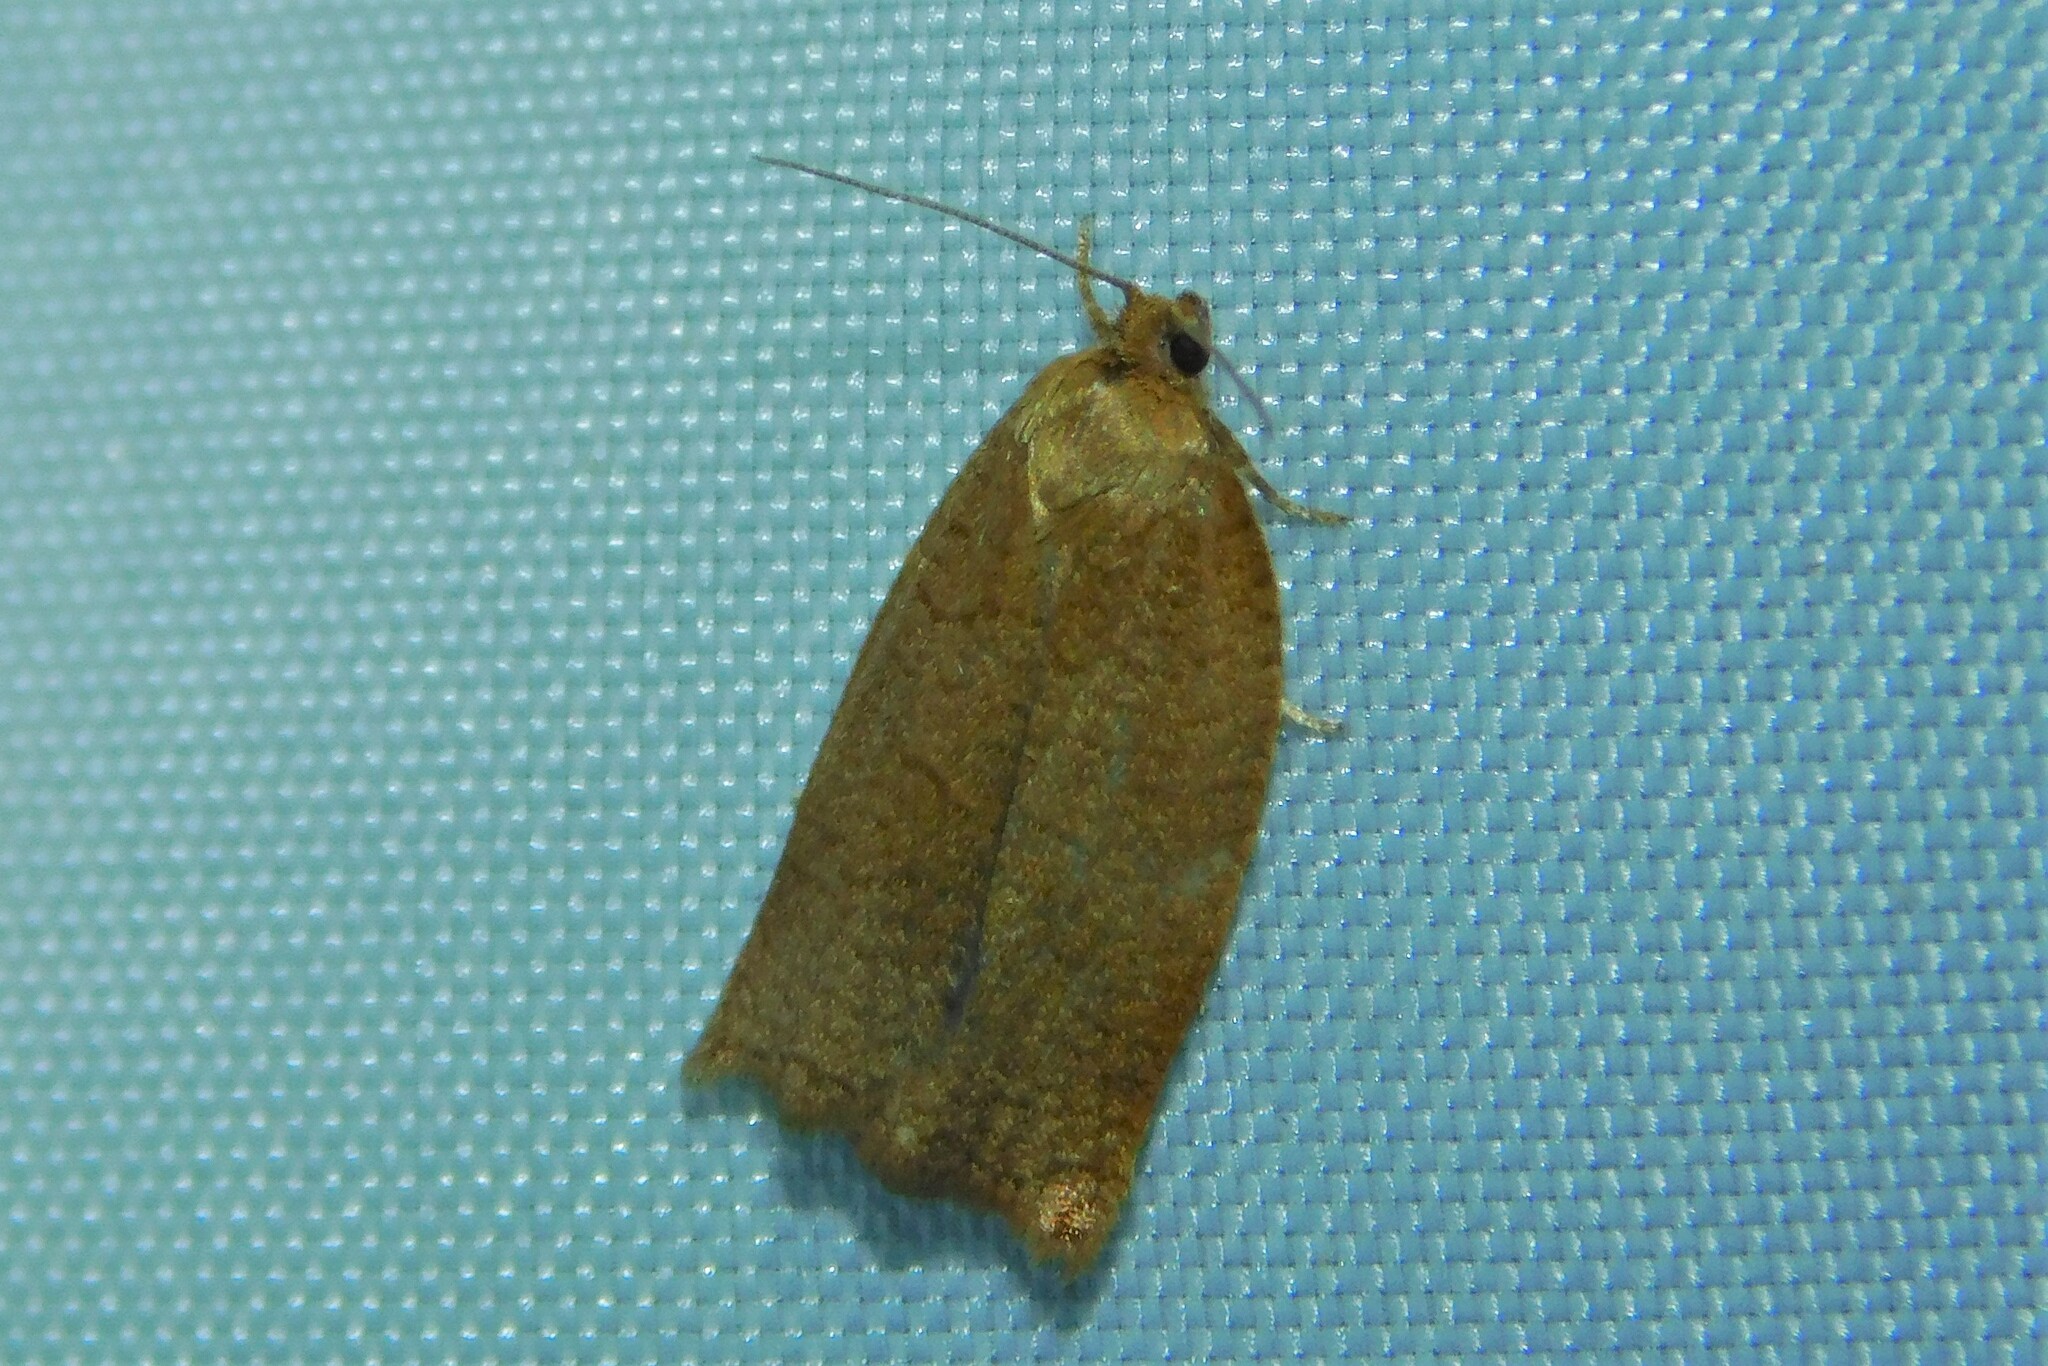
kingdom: Animalia
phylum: Arthropoda
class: Insecta
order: Lepidoptera
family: Tortricidae
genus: Archips
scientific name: Archips rosana
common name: Rose tortrix
